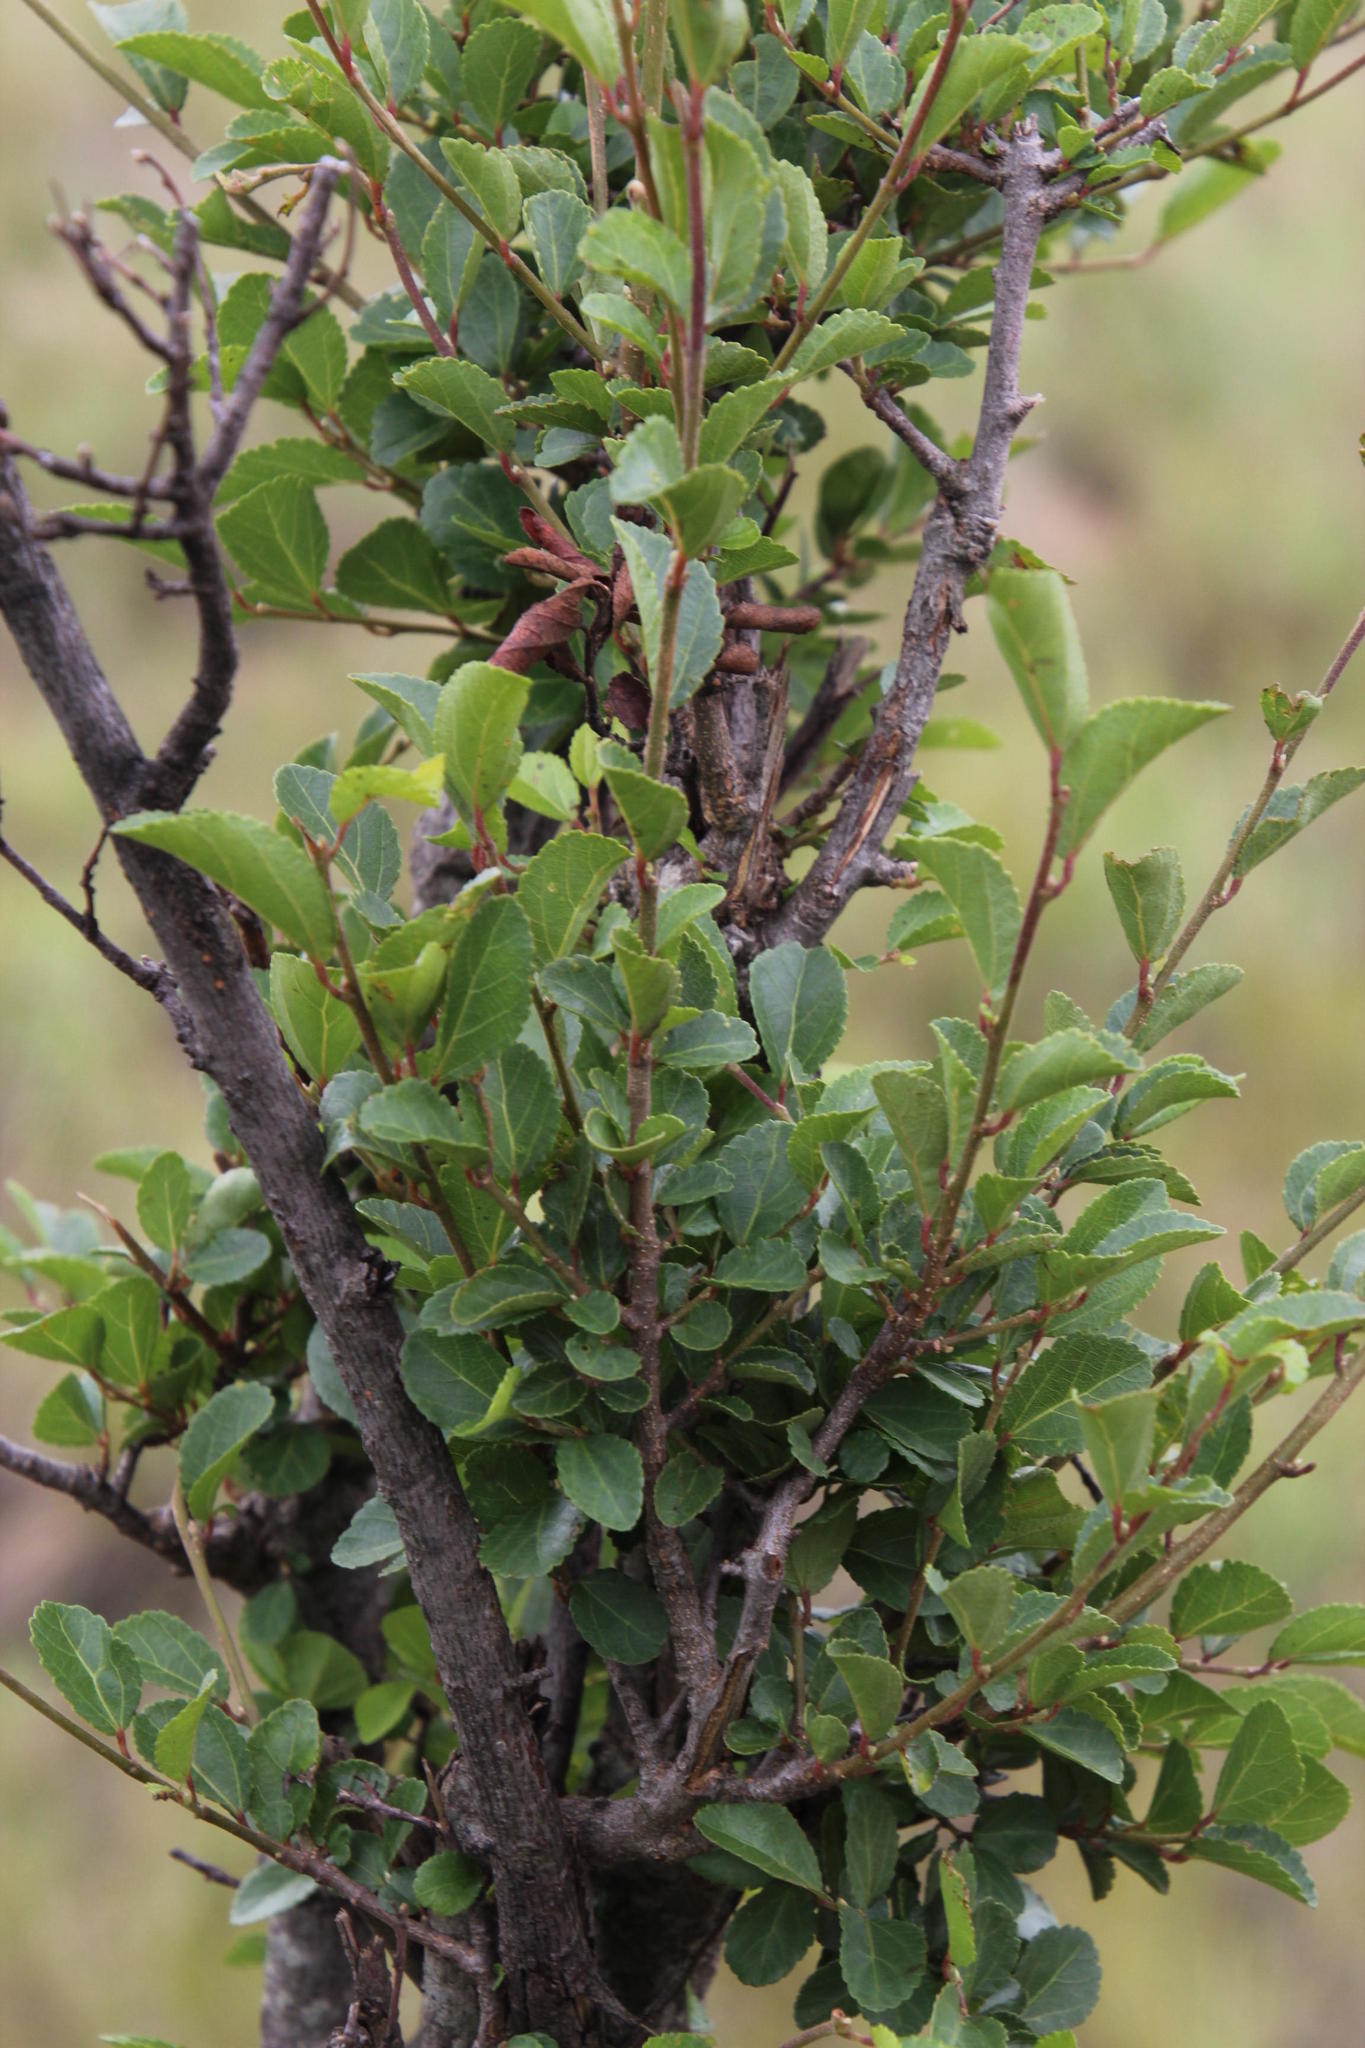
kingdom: Plantae
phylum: Tracheophyta
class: Magnoliopsida
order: Malvales
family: Malvaceae
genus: Grewia
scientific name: Grewia occidentalis
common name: Crossberry
